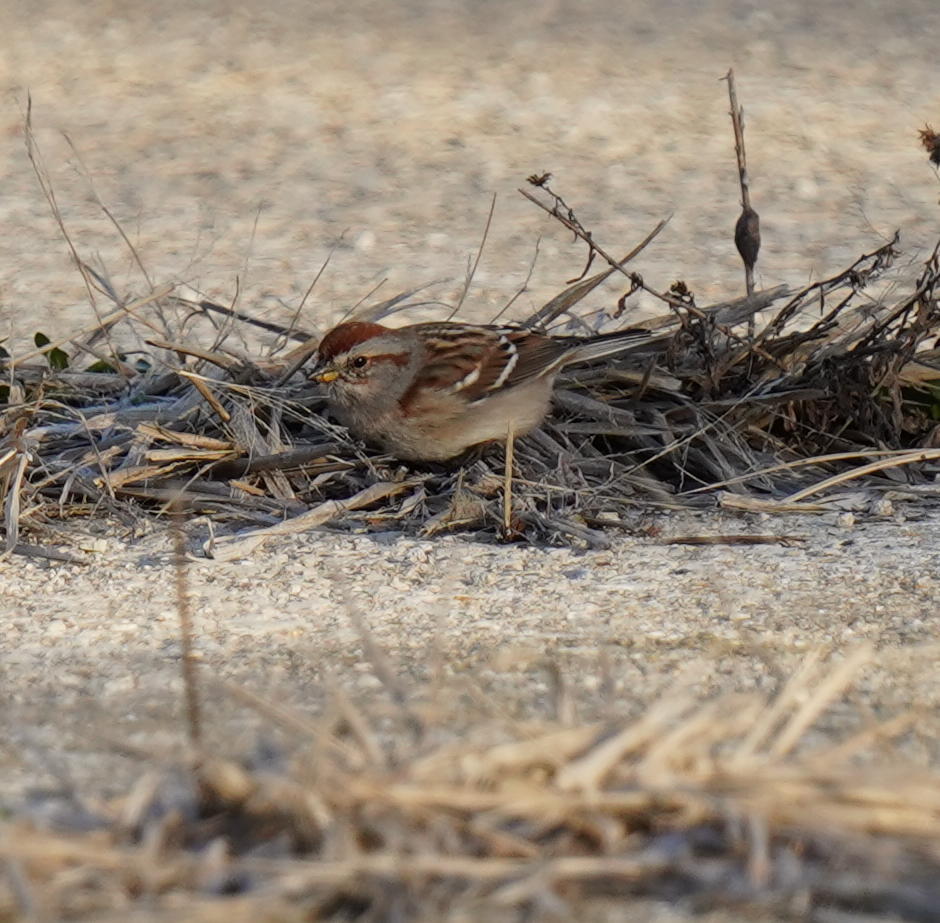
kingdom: Animalia
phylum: Chordata
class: Aves
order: Passeriformes
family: Passerellidae
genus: Spizelloides
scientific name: Spizelloides arborea
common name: American tree sparrow
